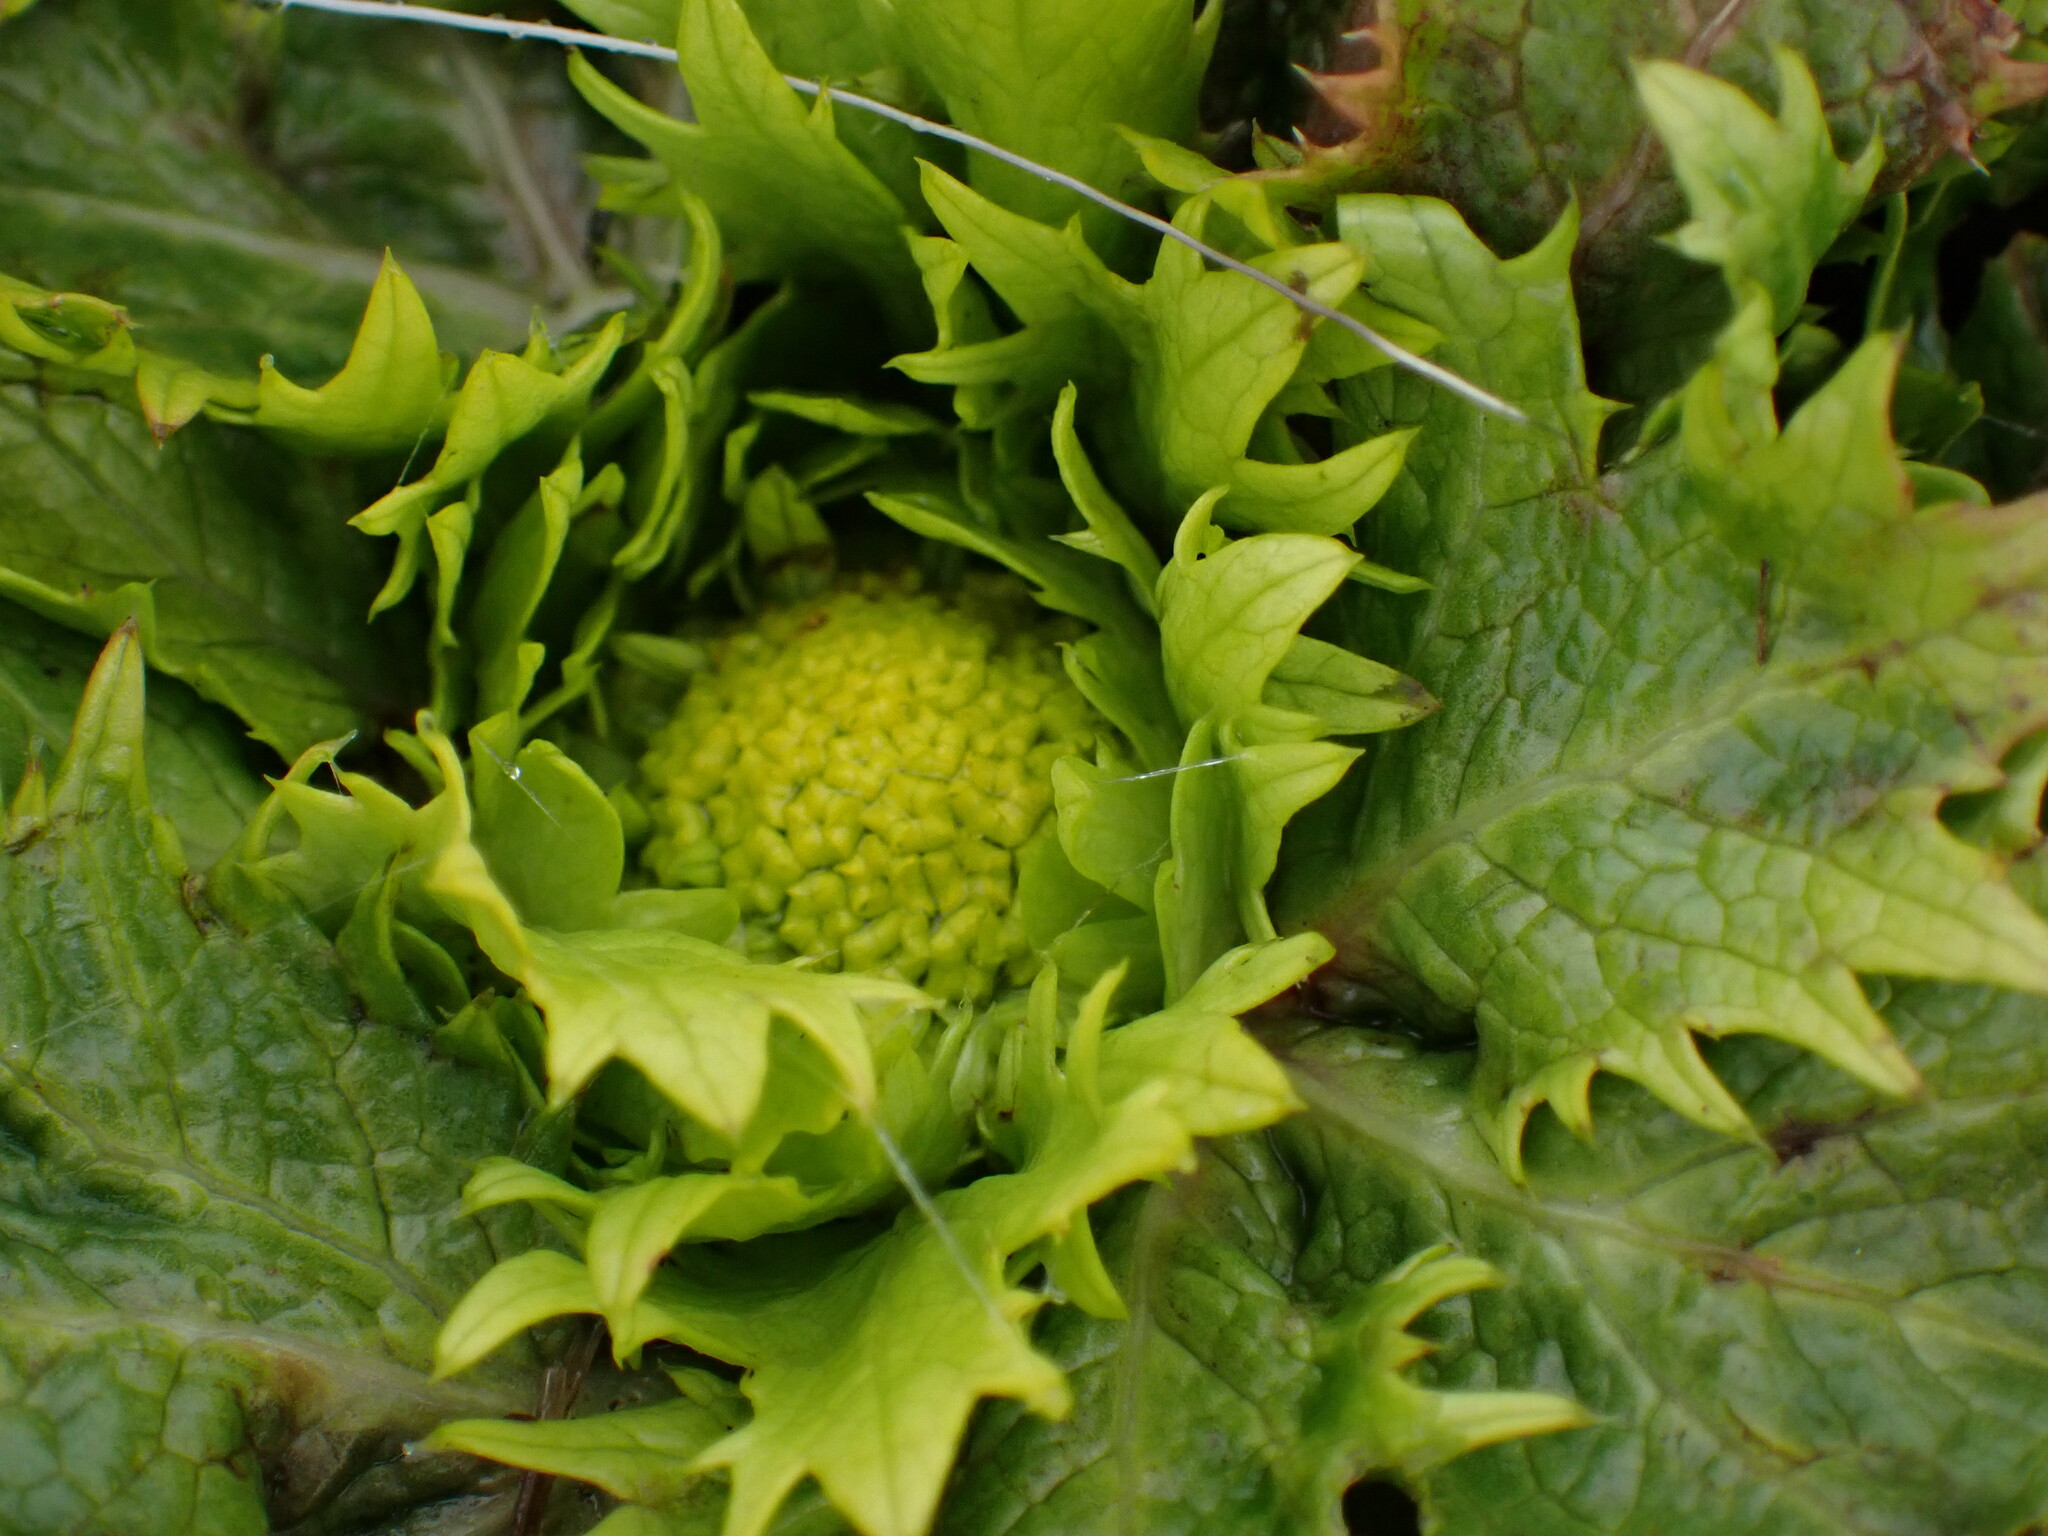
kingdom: Plantae
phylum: Tracheophyta
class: Magnoliopsida
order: Apiales
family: Apiaceae
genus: Sanicula
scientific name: Sanicula arctopoides
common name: Footsteps-of-spring
